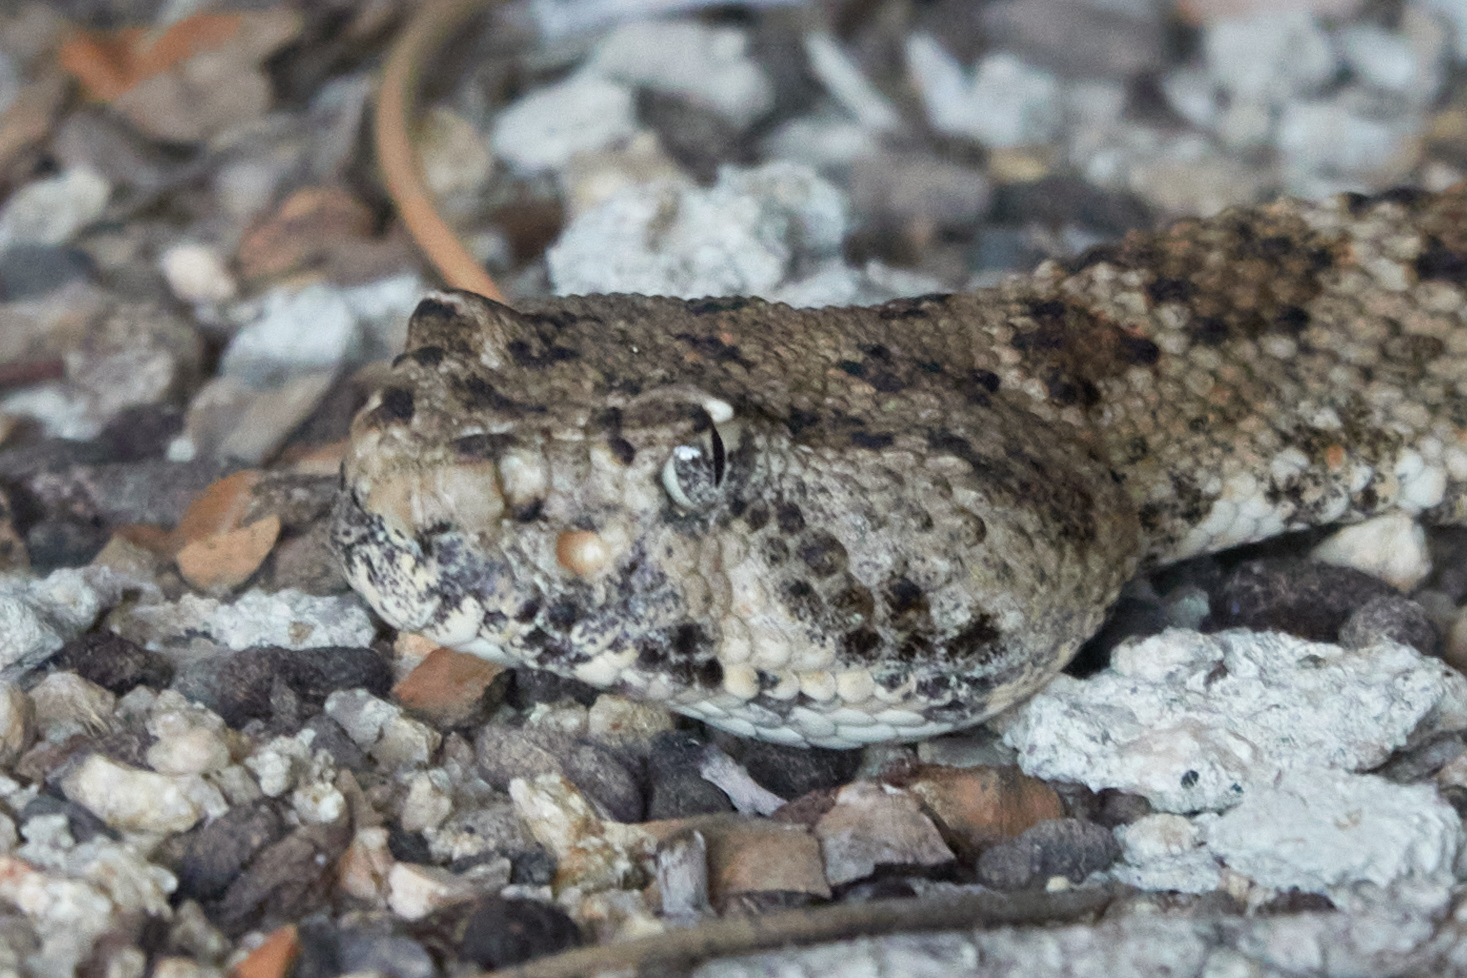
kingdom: Animalia
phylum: Chordata
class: Squamata
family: Viperidae
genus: Crotalus
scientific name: Crotalus pyrrhus
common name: Southwestern speckled rattlesnake
